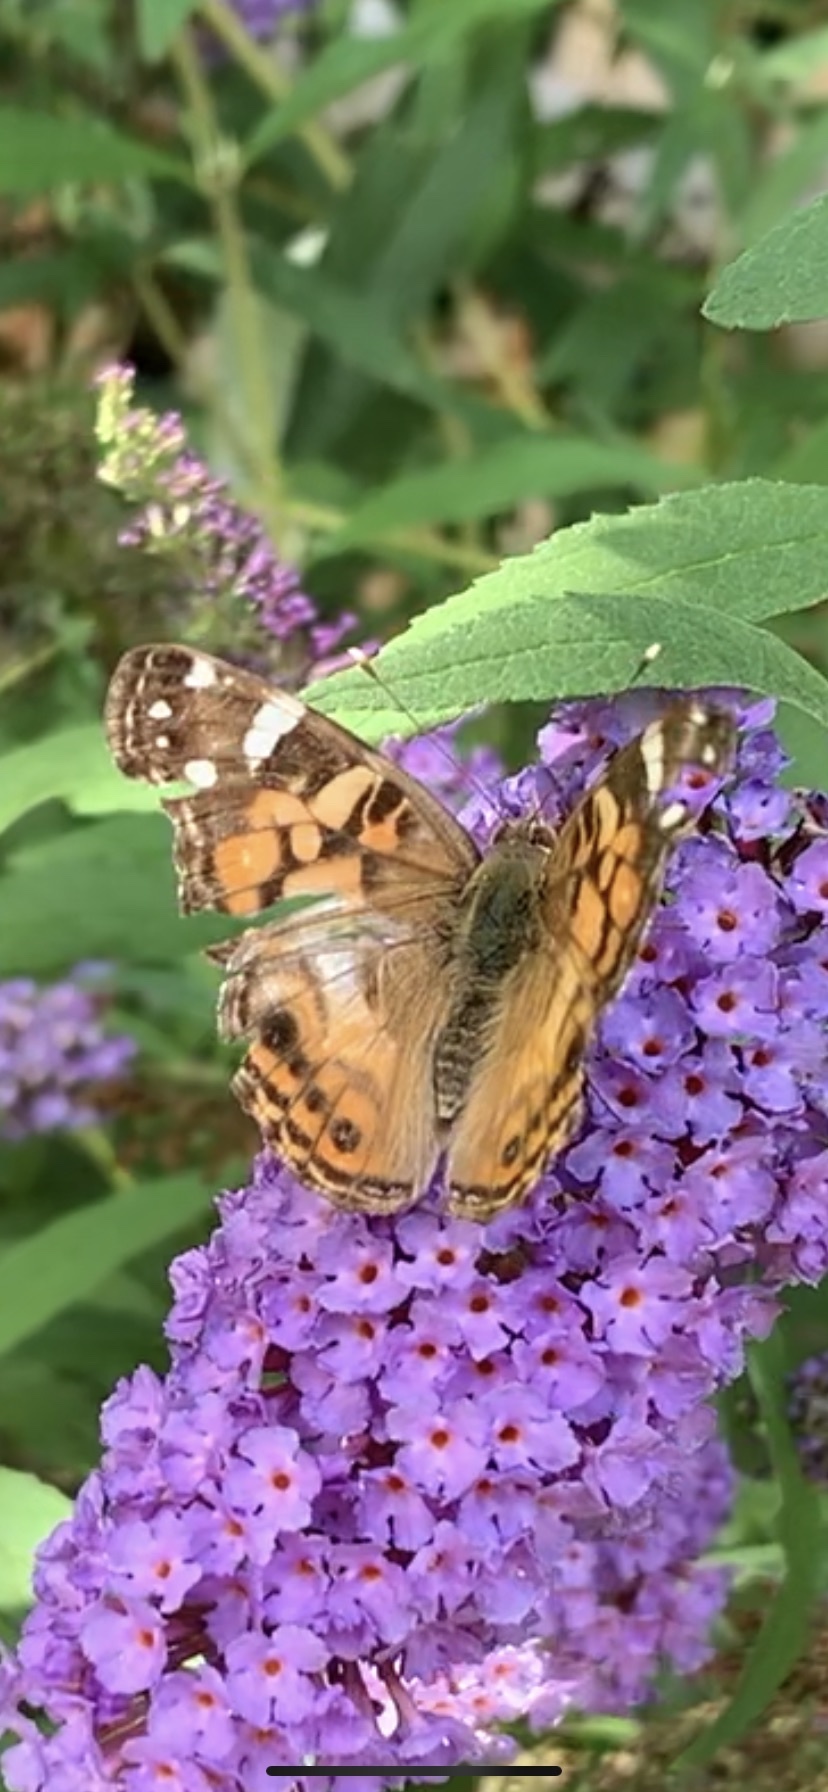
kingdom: Animalia
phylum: Arthropoda
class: Insecta
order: Lepidoptera
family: Nymphalidae
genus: Vanessa
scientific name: Vanessa virginiensis
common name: American lady
